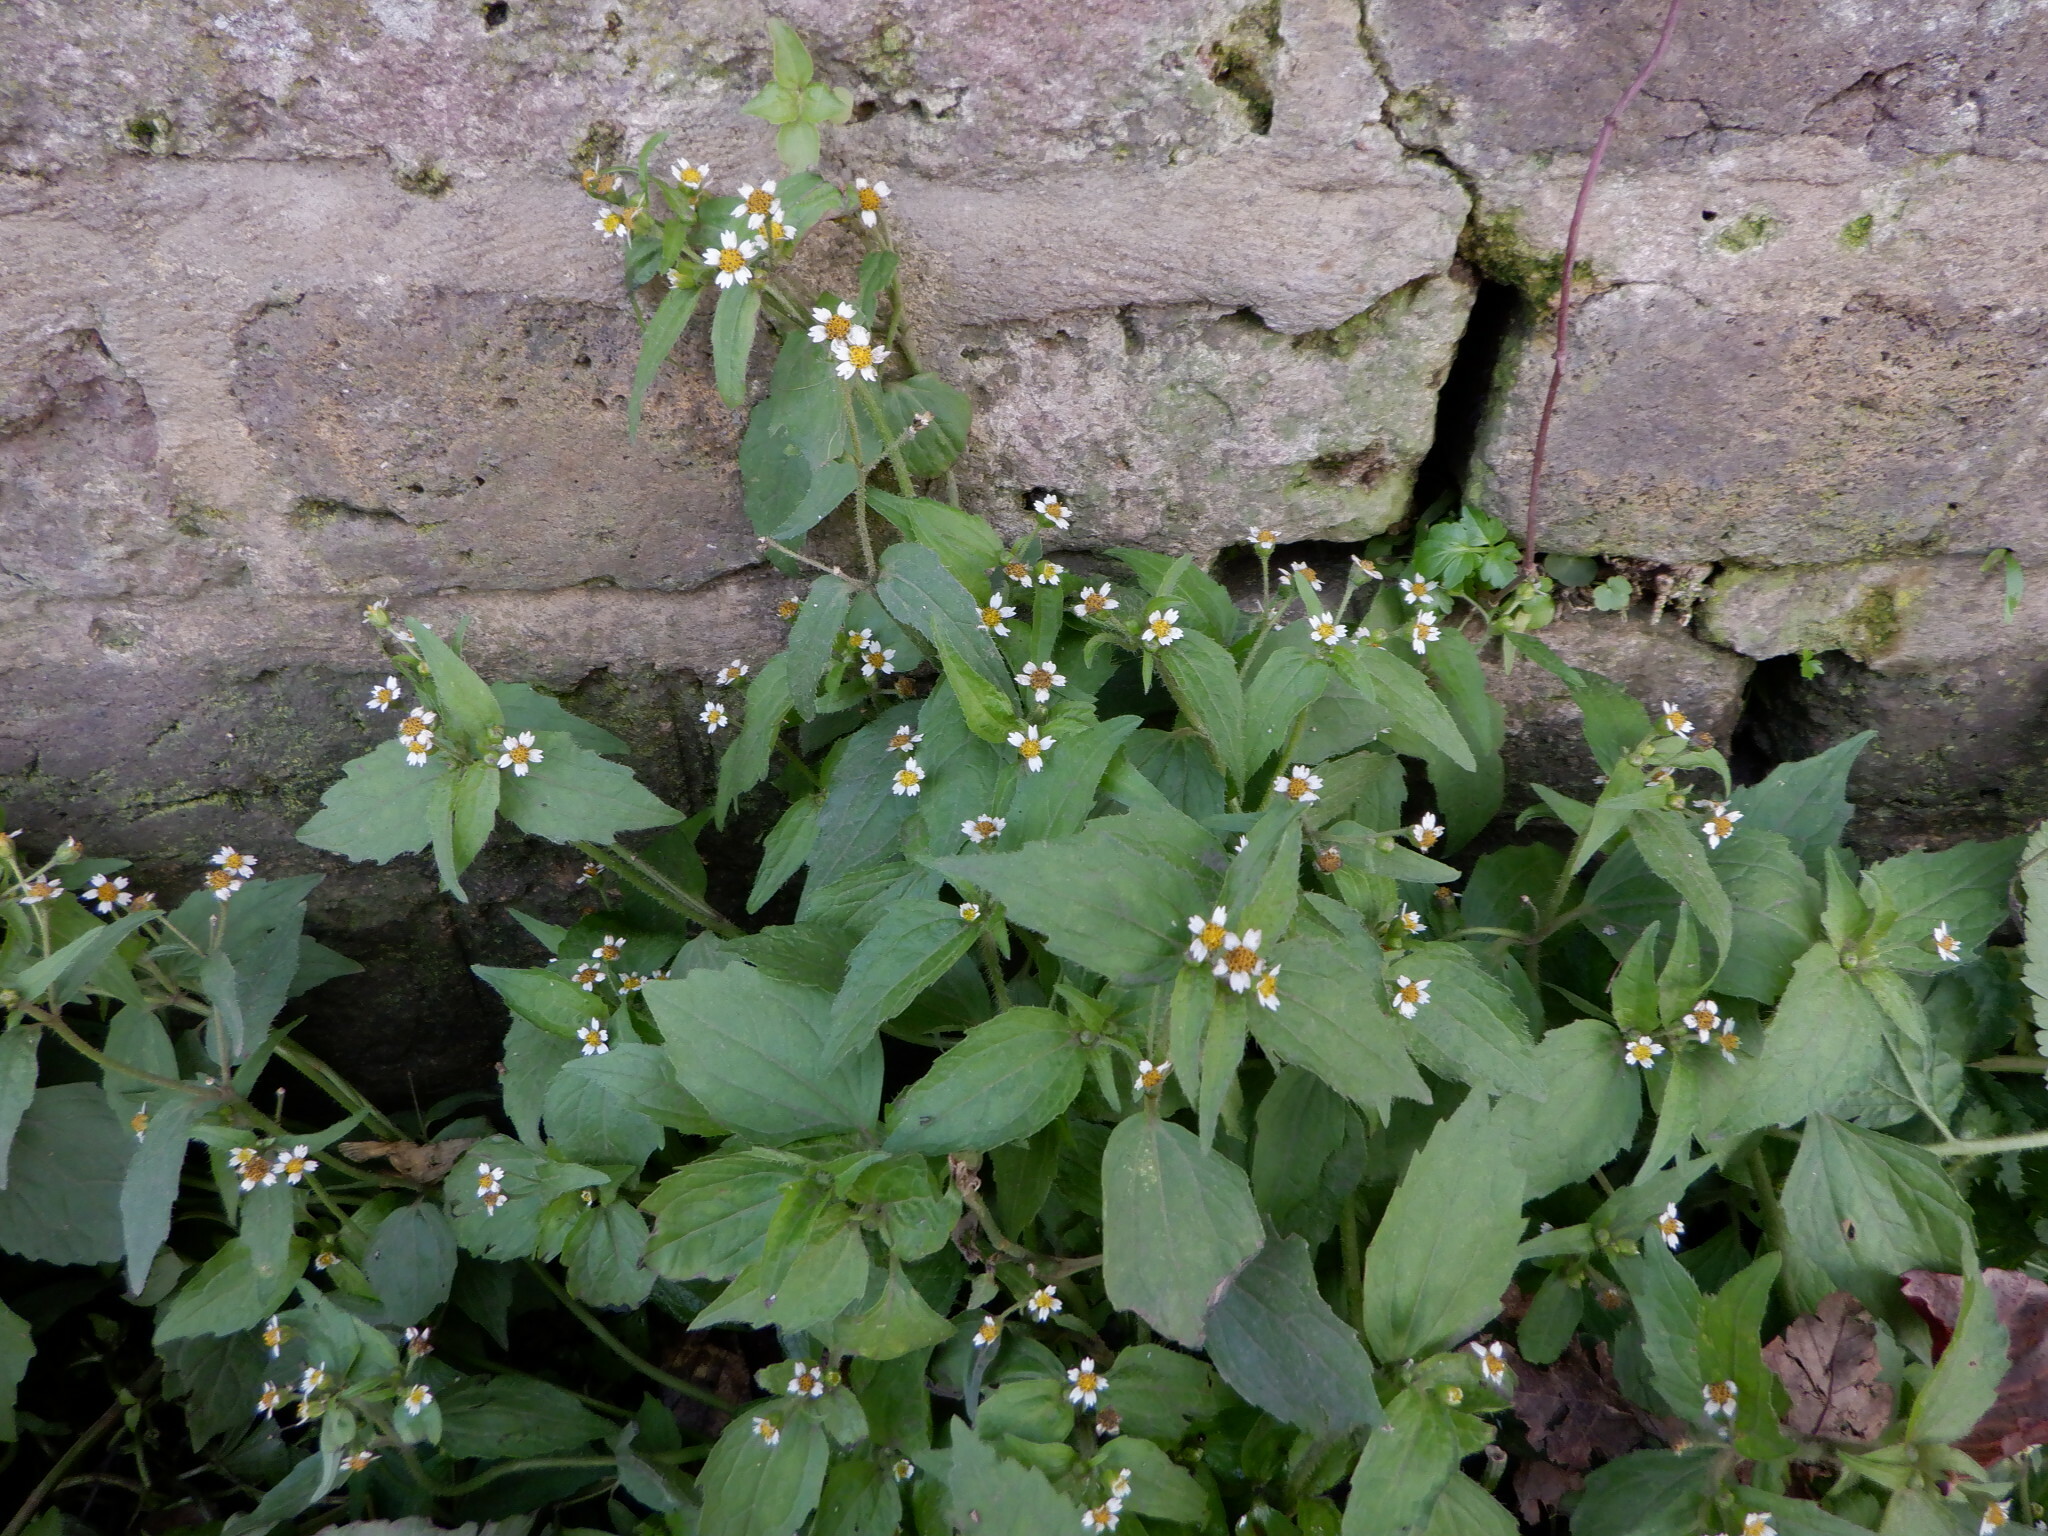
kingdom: Plantae
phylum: Tracheophyta
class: Magnoliopsida
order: Asterales
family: Asteraceae
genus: Galinsoga
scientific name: Galinsoga quadriradiata
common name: Shaggy soldier
